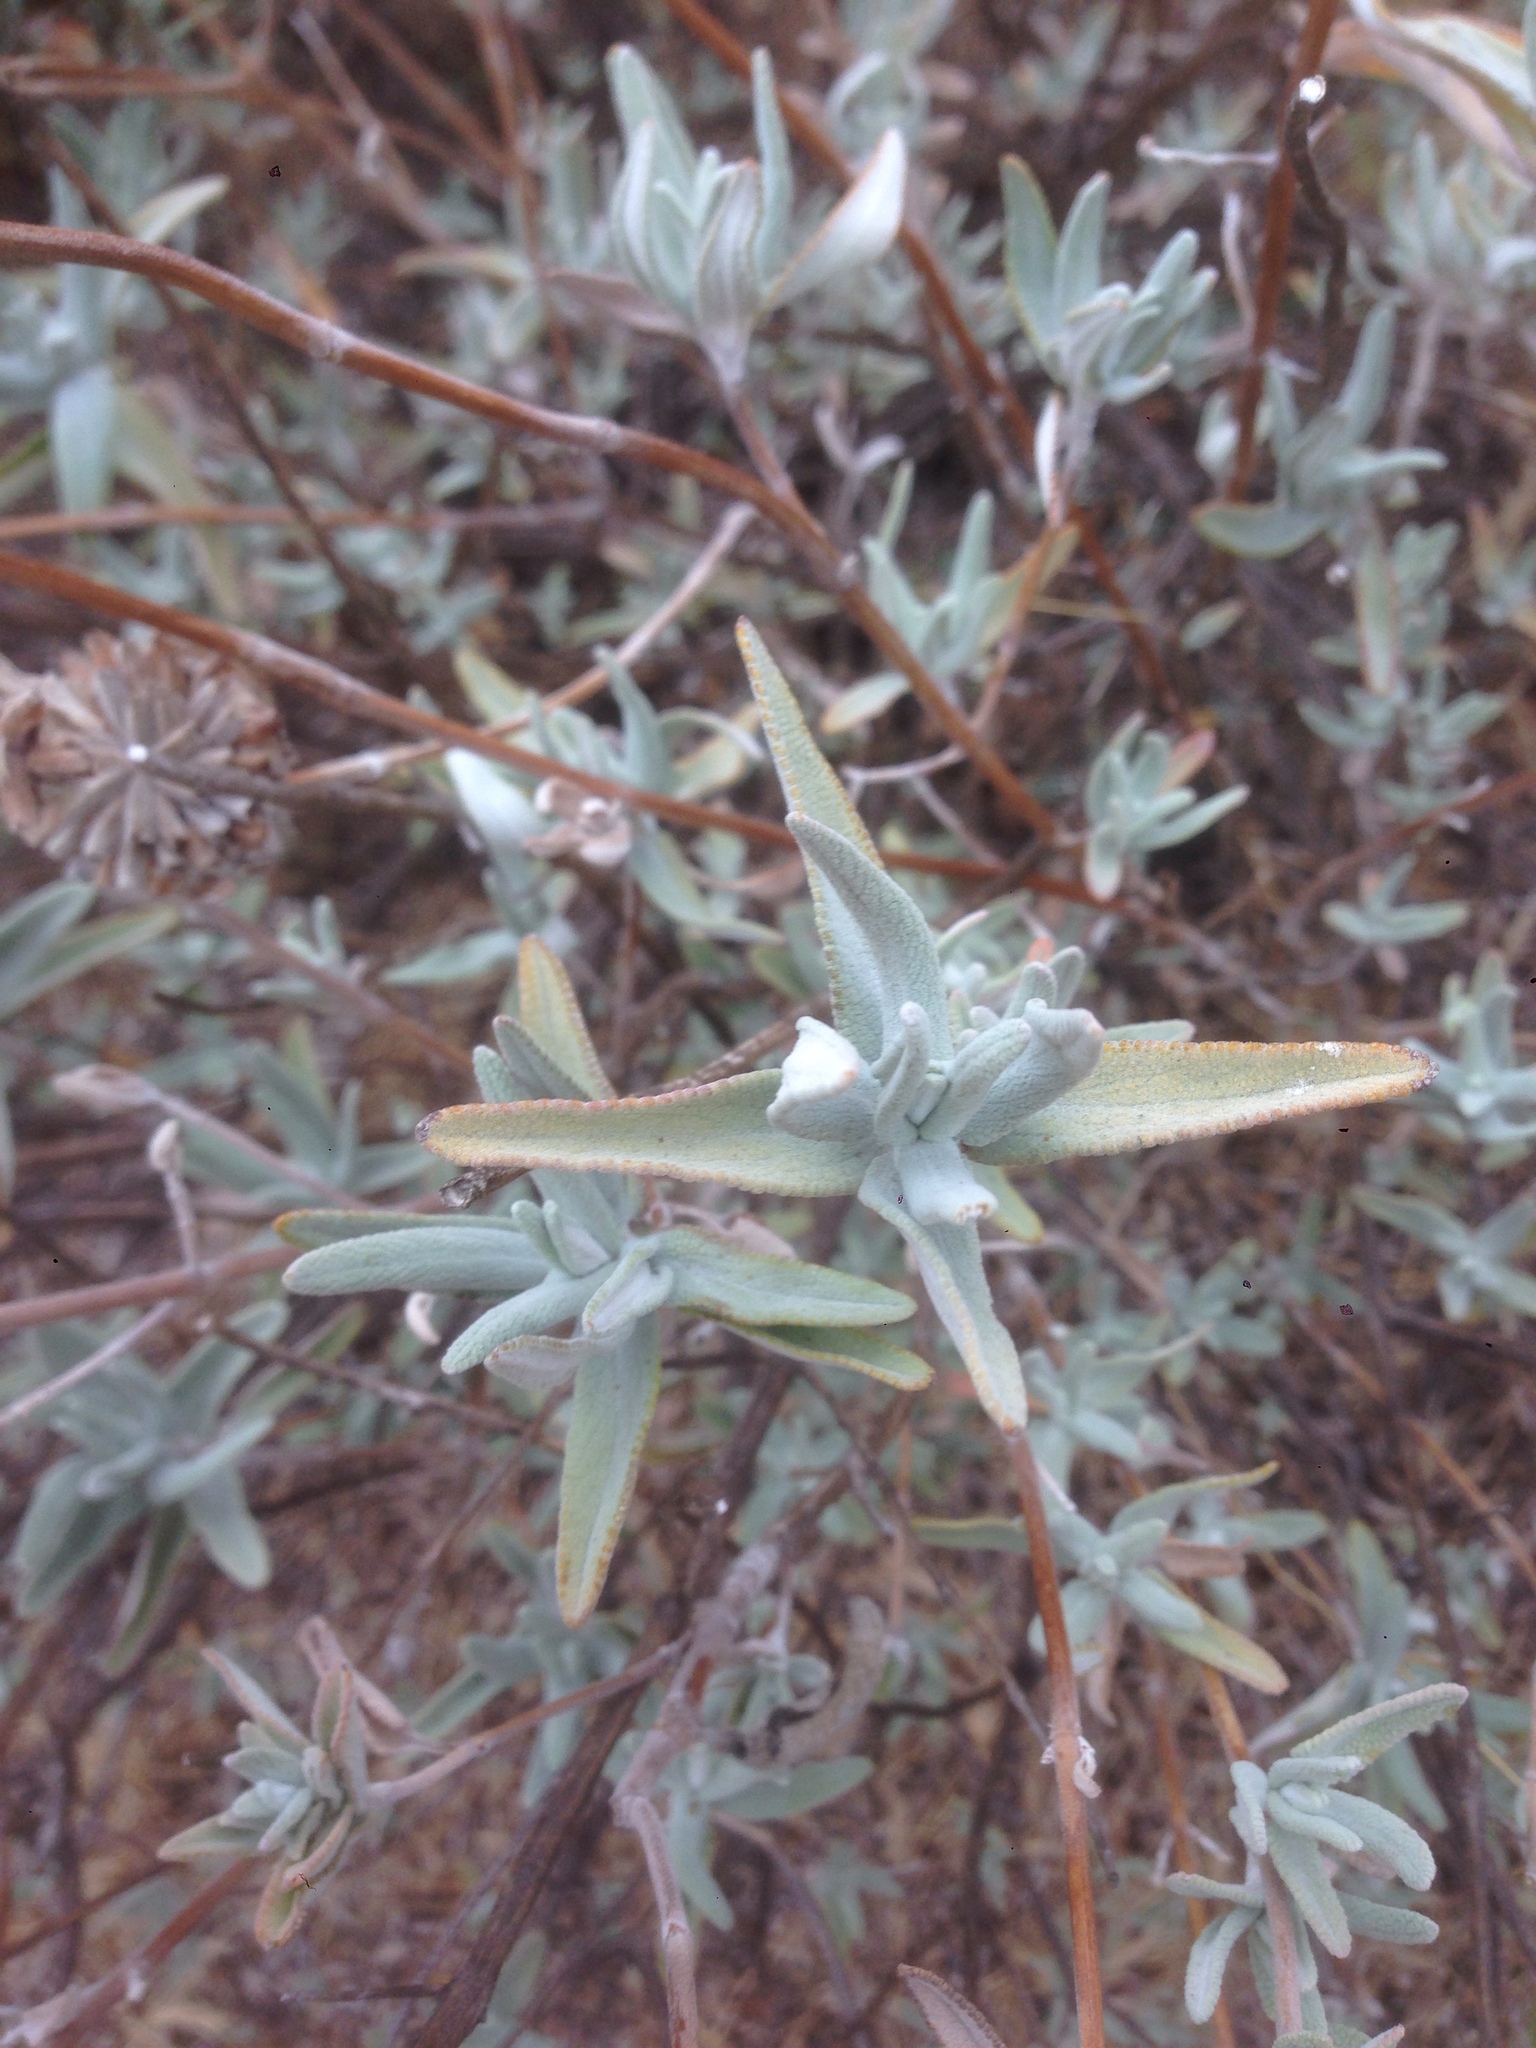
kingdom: Plantae
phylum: Tracheophyta
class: Magnoliopsida
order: Lamiales
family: Lamiaceae
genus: Salvia
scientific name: Salvia leucophylla
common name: Purple sage
